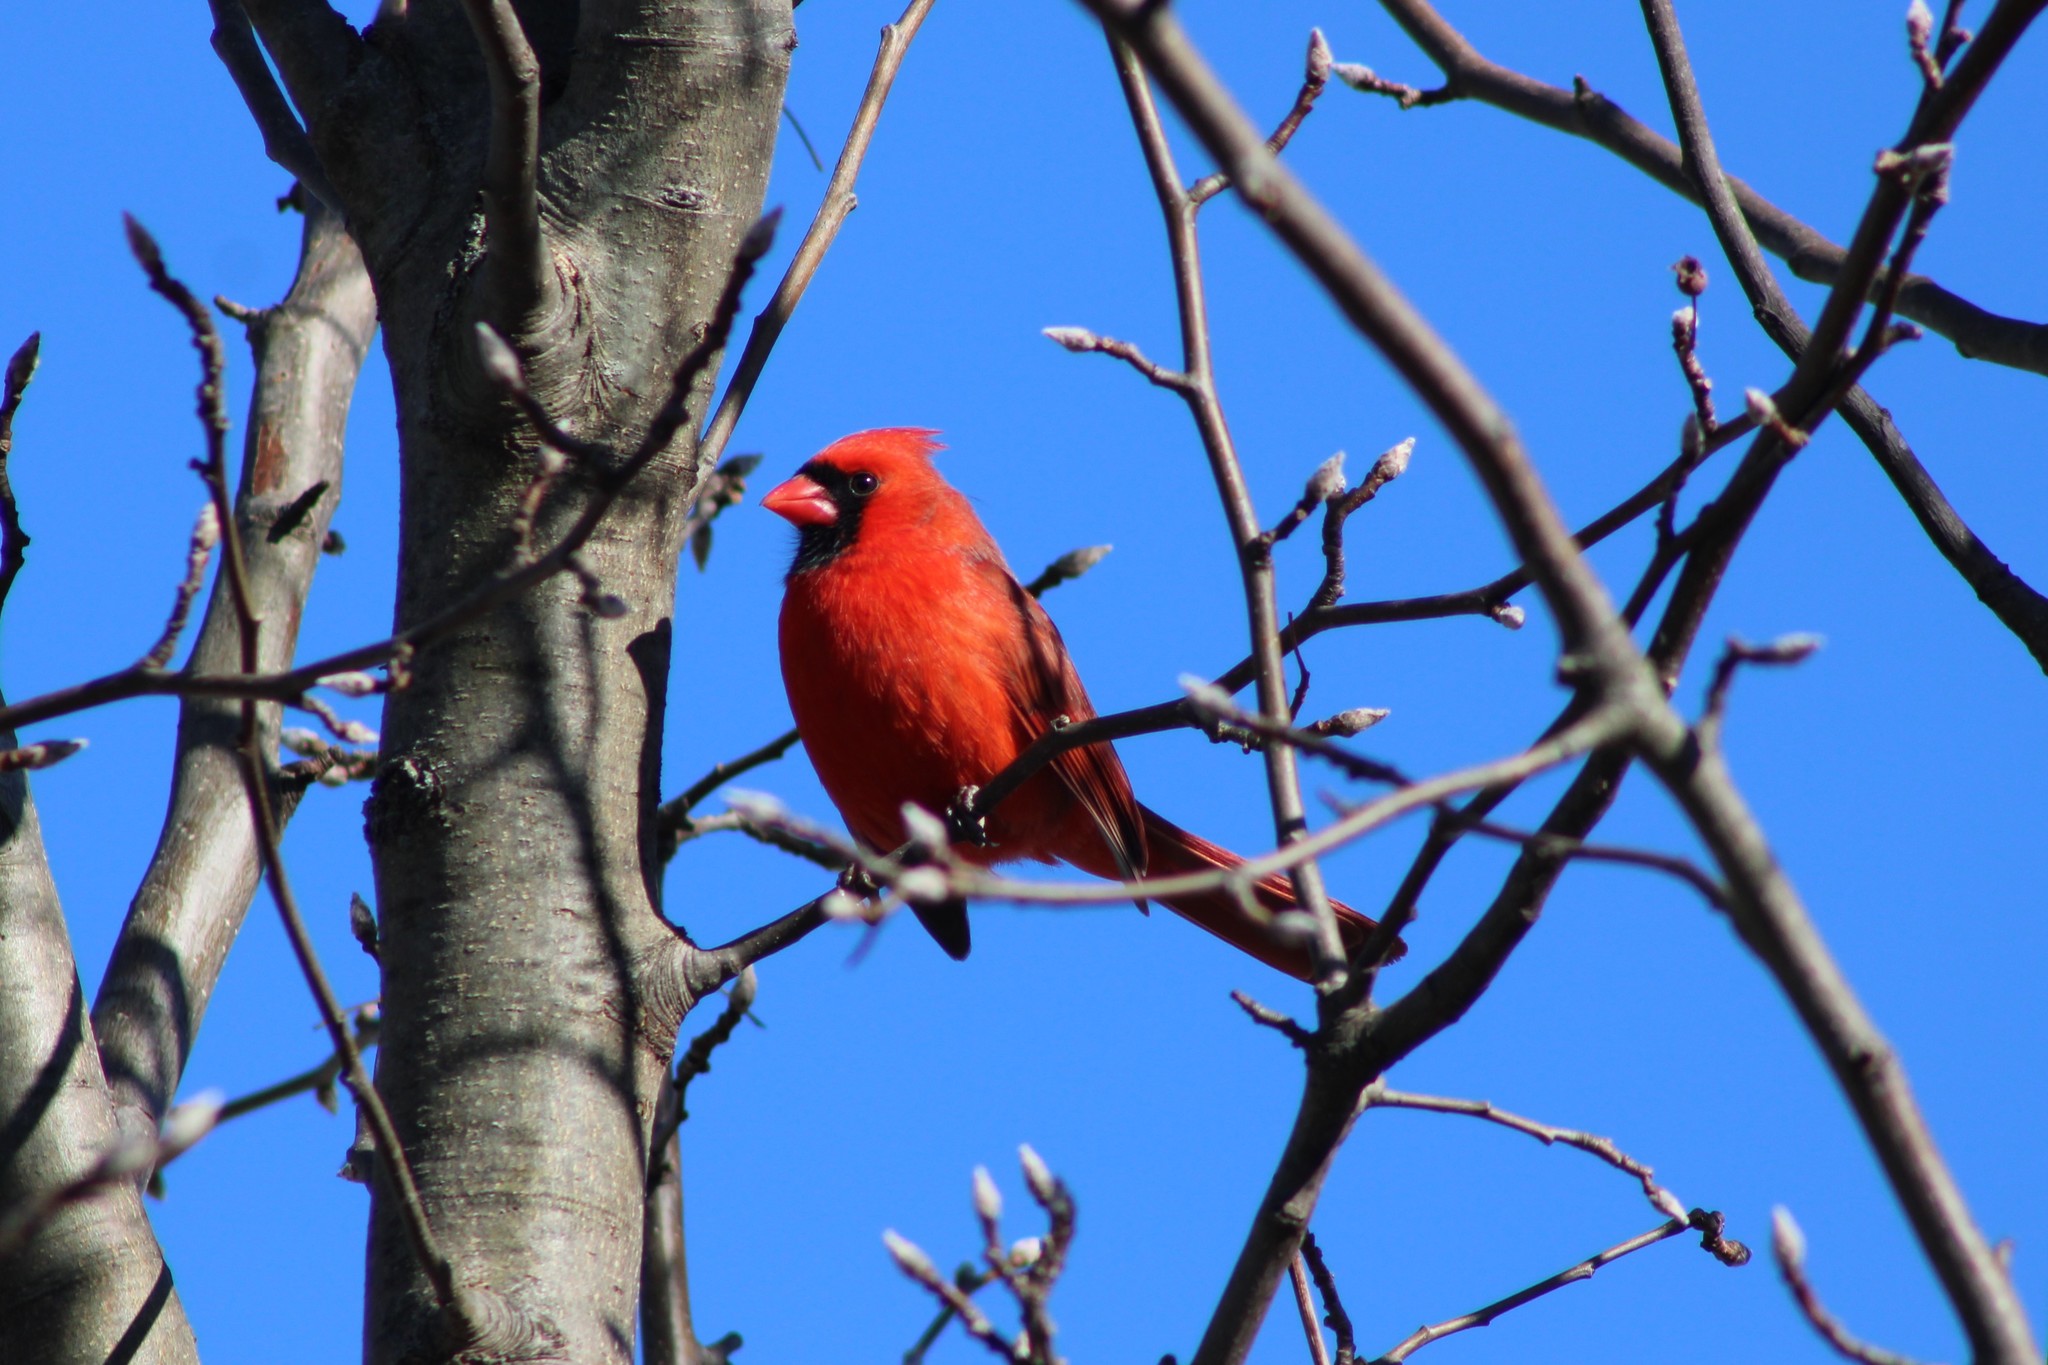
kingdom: Animalia
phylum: Chordata
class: Aves
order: Passeriformes
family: Cardinalidae
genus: Cardinalis
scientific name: Cardinalis cardinalis
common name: Northern cardinal
